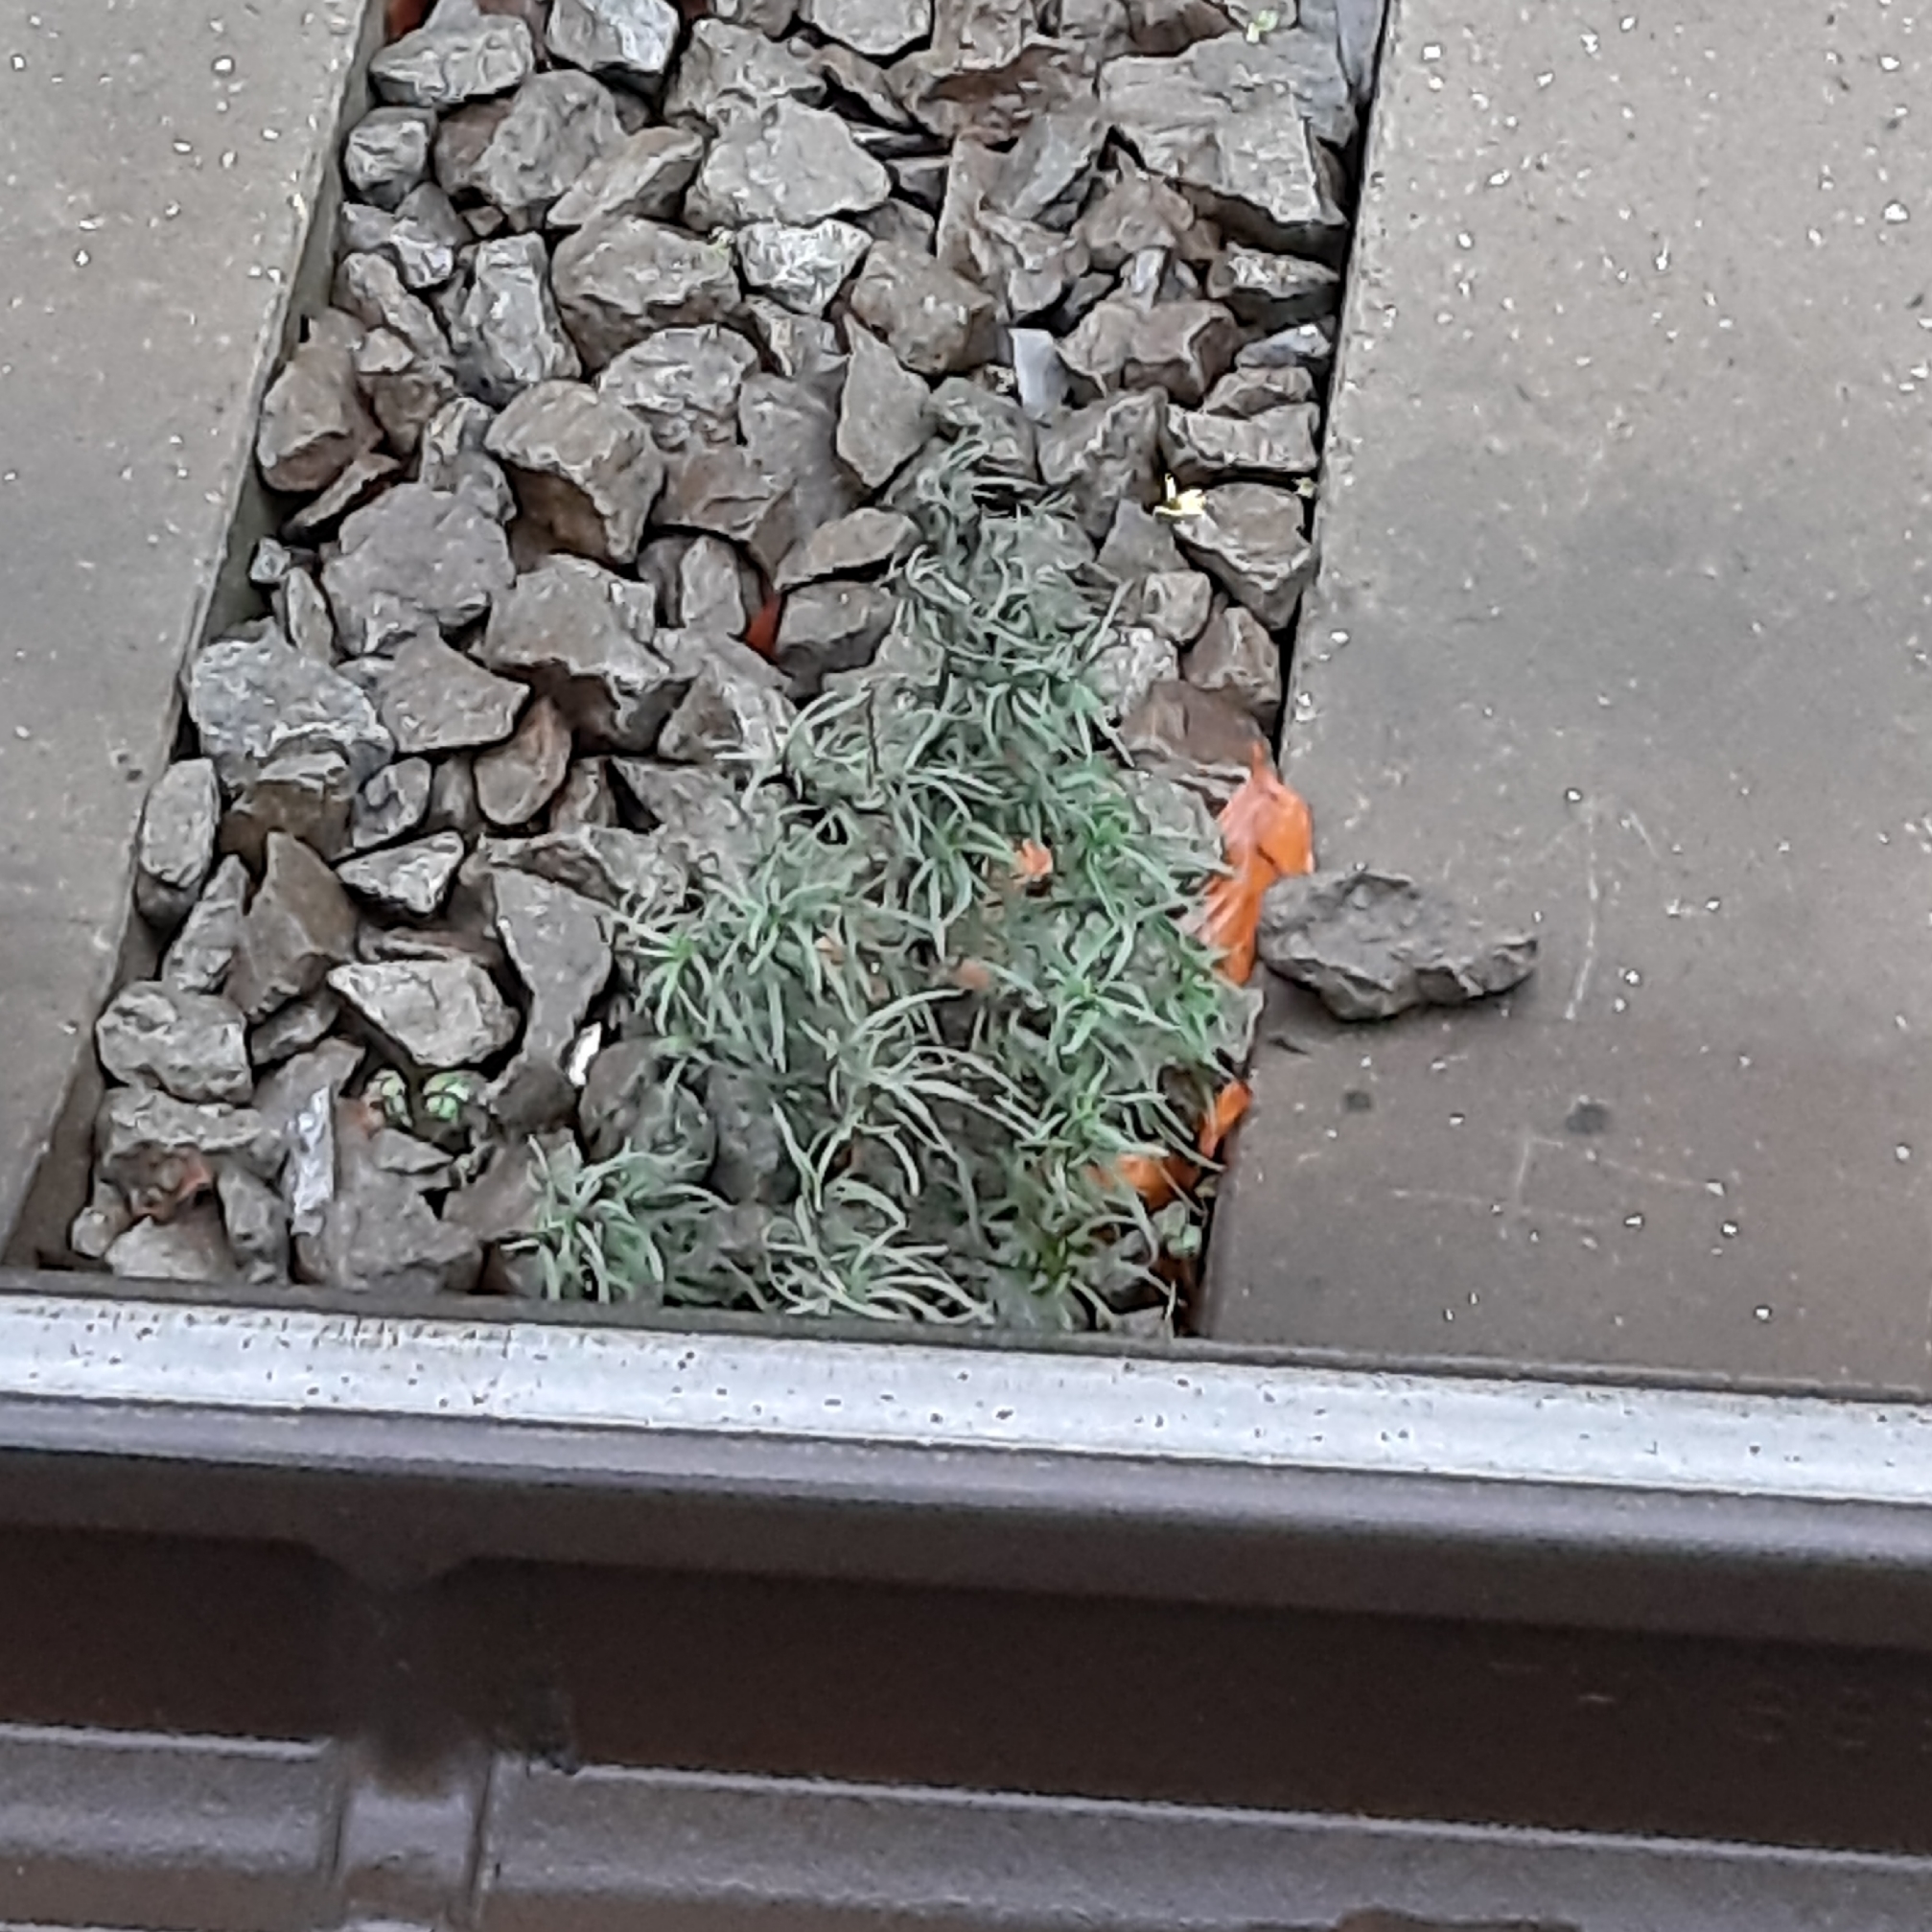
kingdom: Plantae
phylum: Tracheophyta
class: Magnoliopsida
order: Asterales
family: Asteraceae
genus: Senecio
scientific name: Senecio inaequidens
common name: Narrow-leaved ragwort
